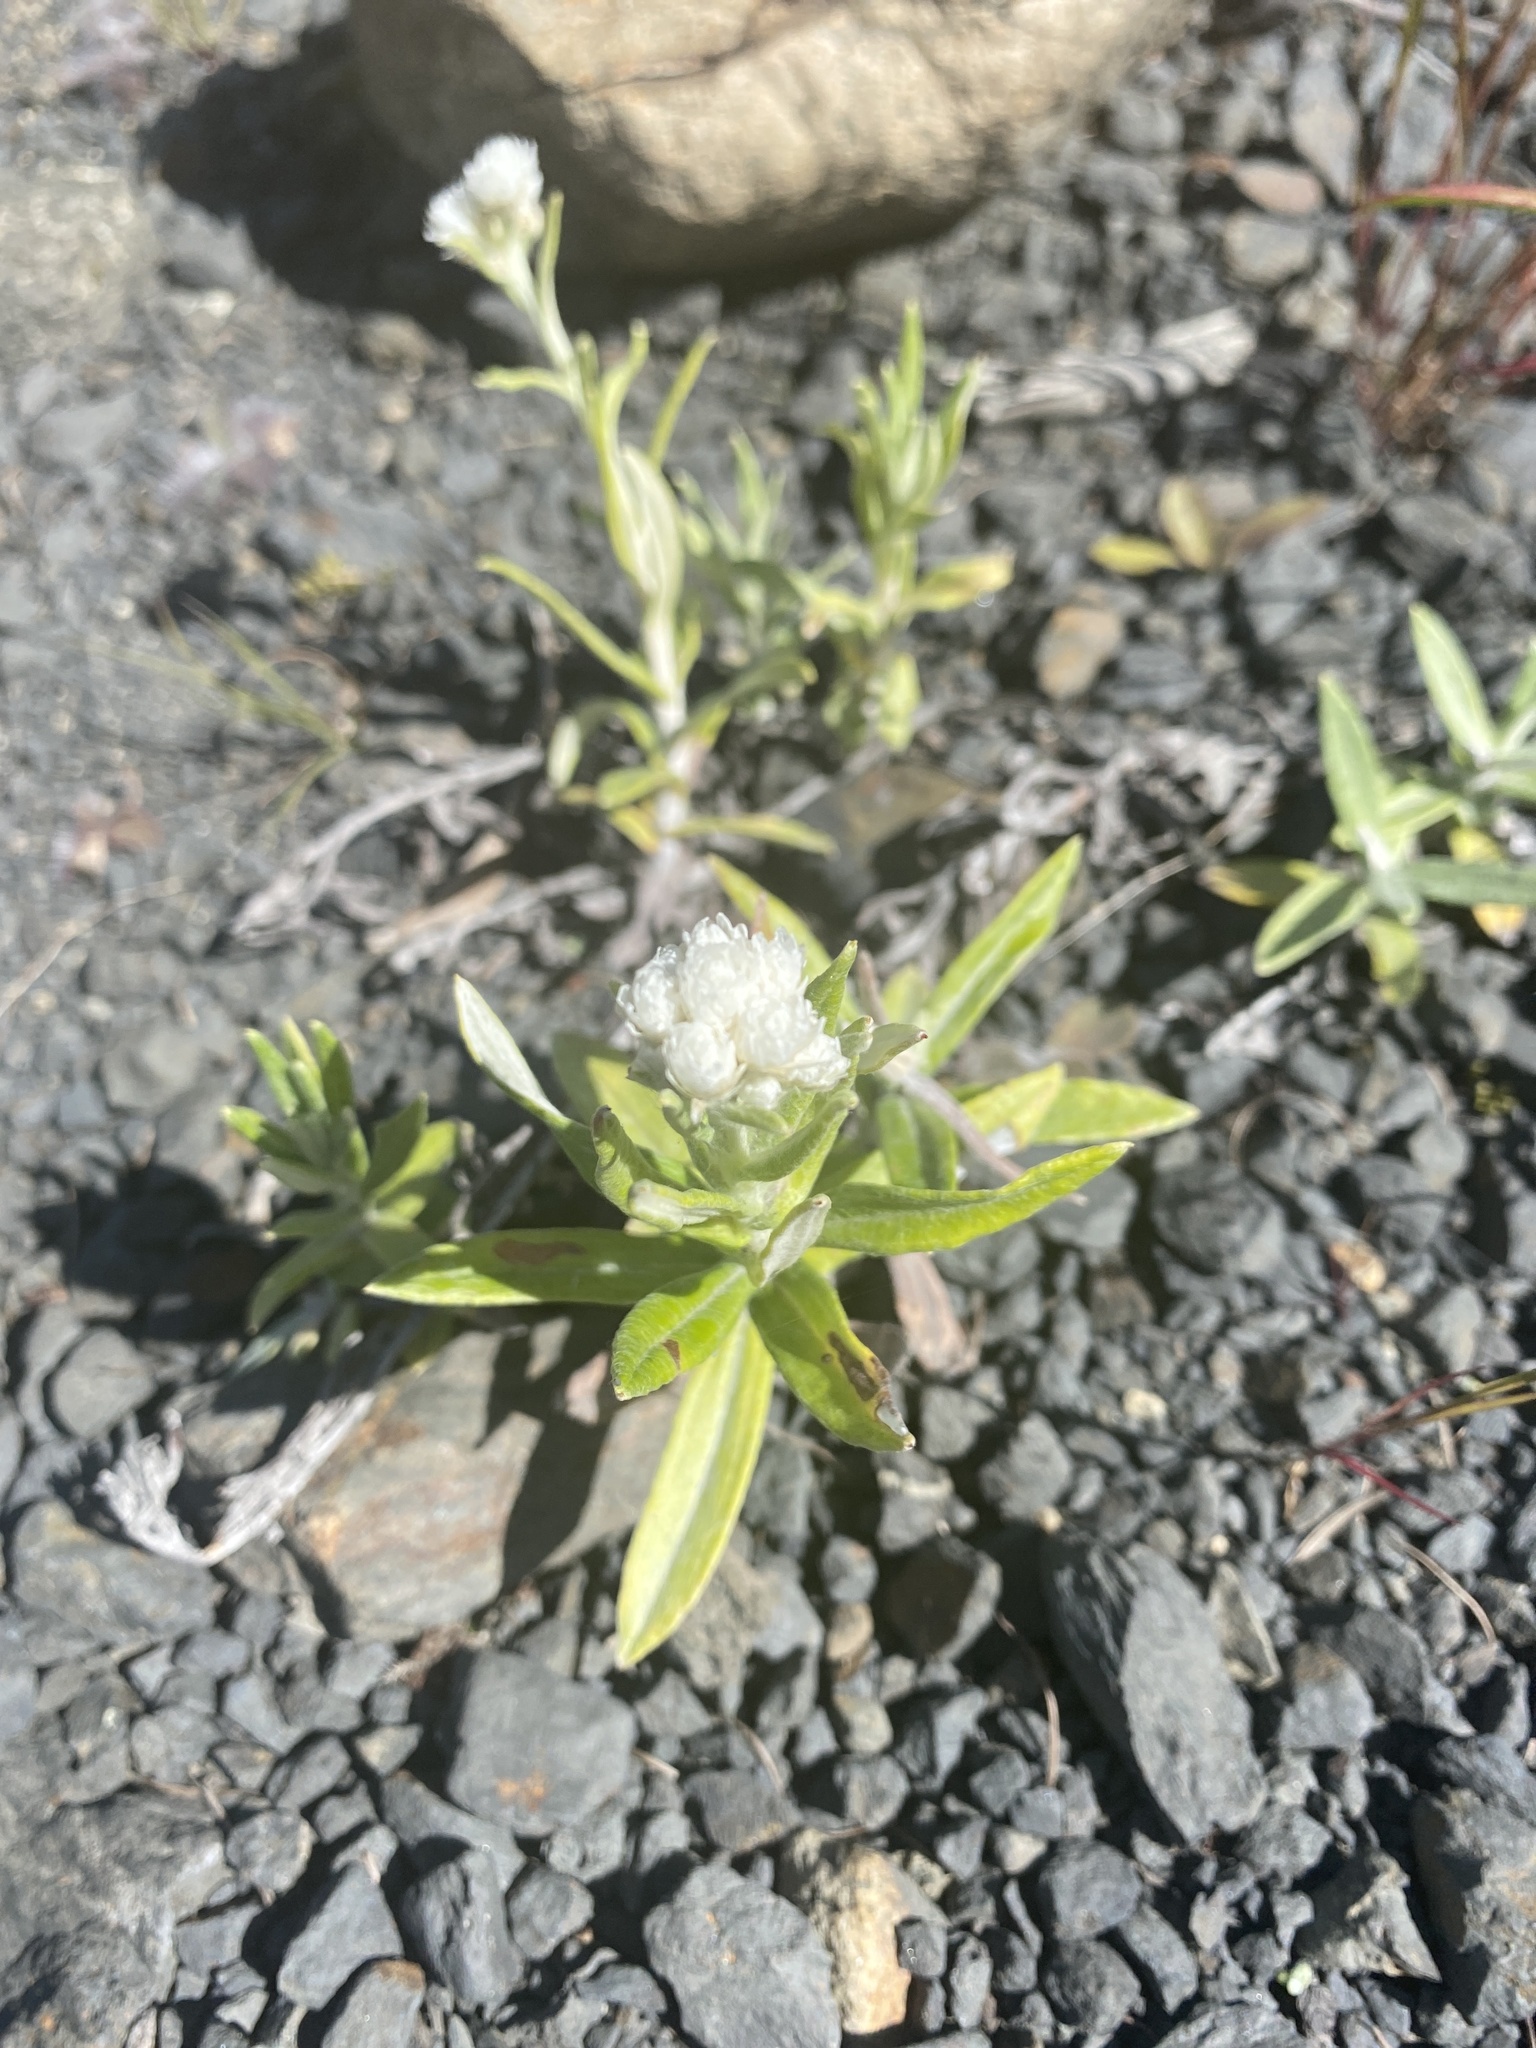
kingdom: Plantae
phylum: Tracheophyta
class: Magnoliopsida
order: Asterales
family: Asteraceae
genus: Anaphalis
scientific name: Anaphalis margaritacea
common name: Pearly everlasting
